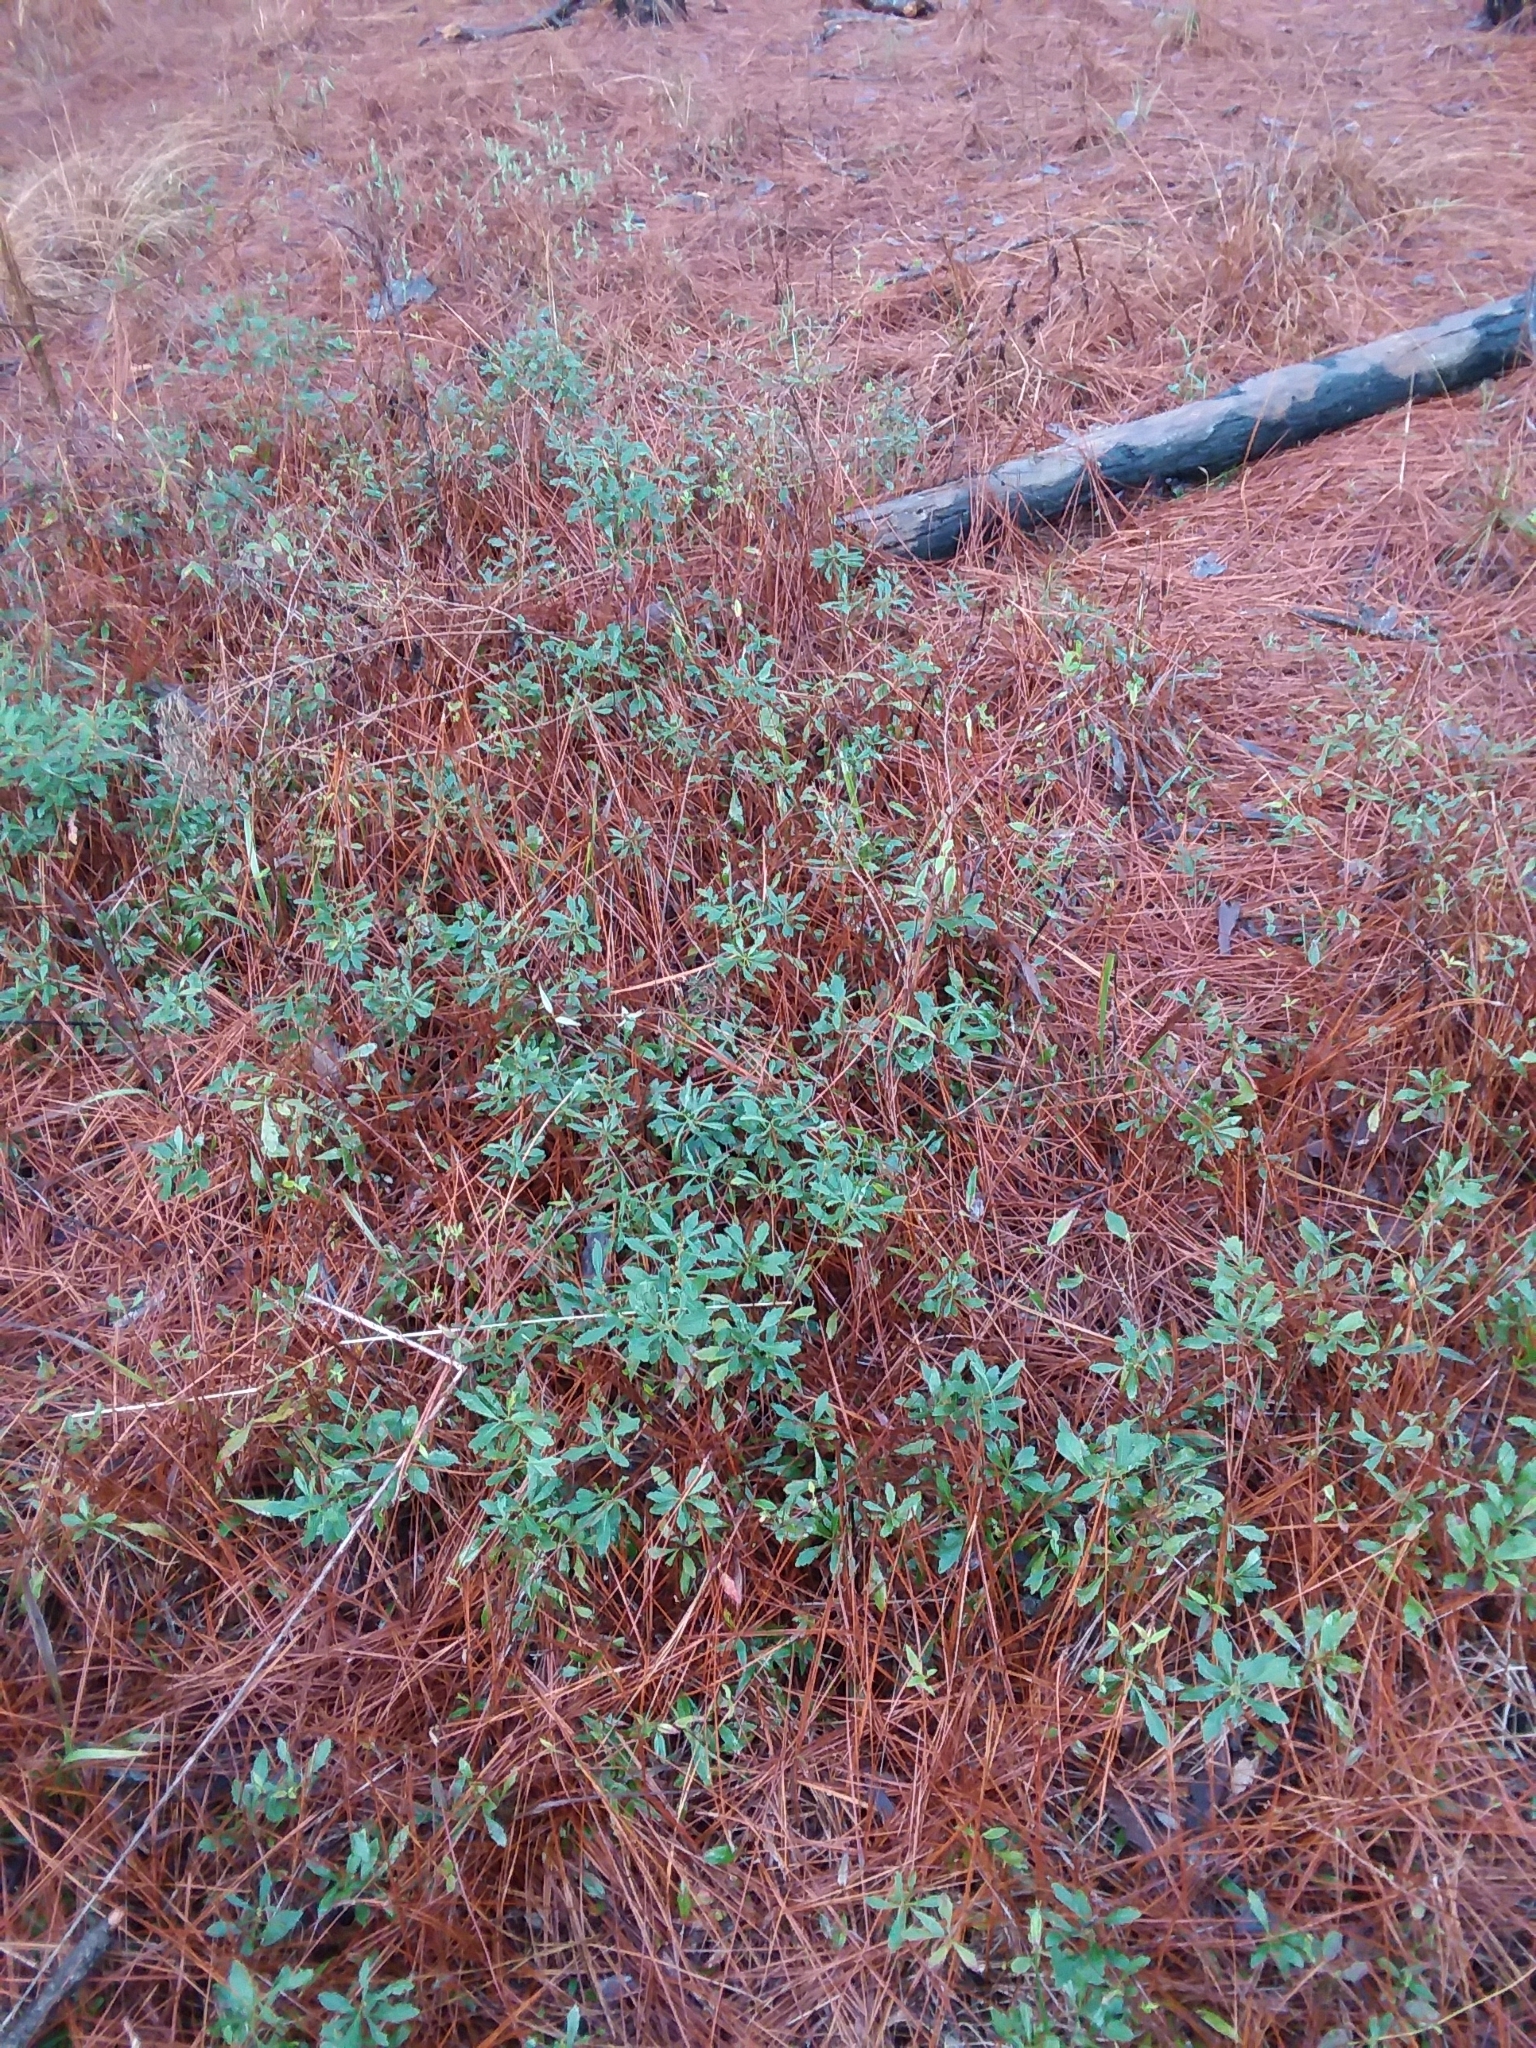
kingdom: Plantae
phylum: Tracheophyta
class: Magnoliopsida
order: Fagales
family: Myricaceae
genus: Morella
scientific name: Morella cerifera
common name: Wax myrtle
